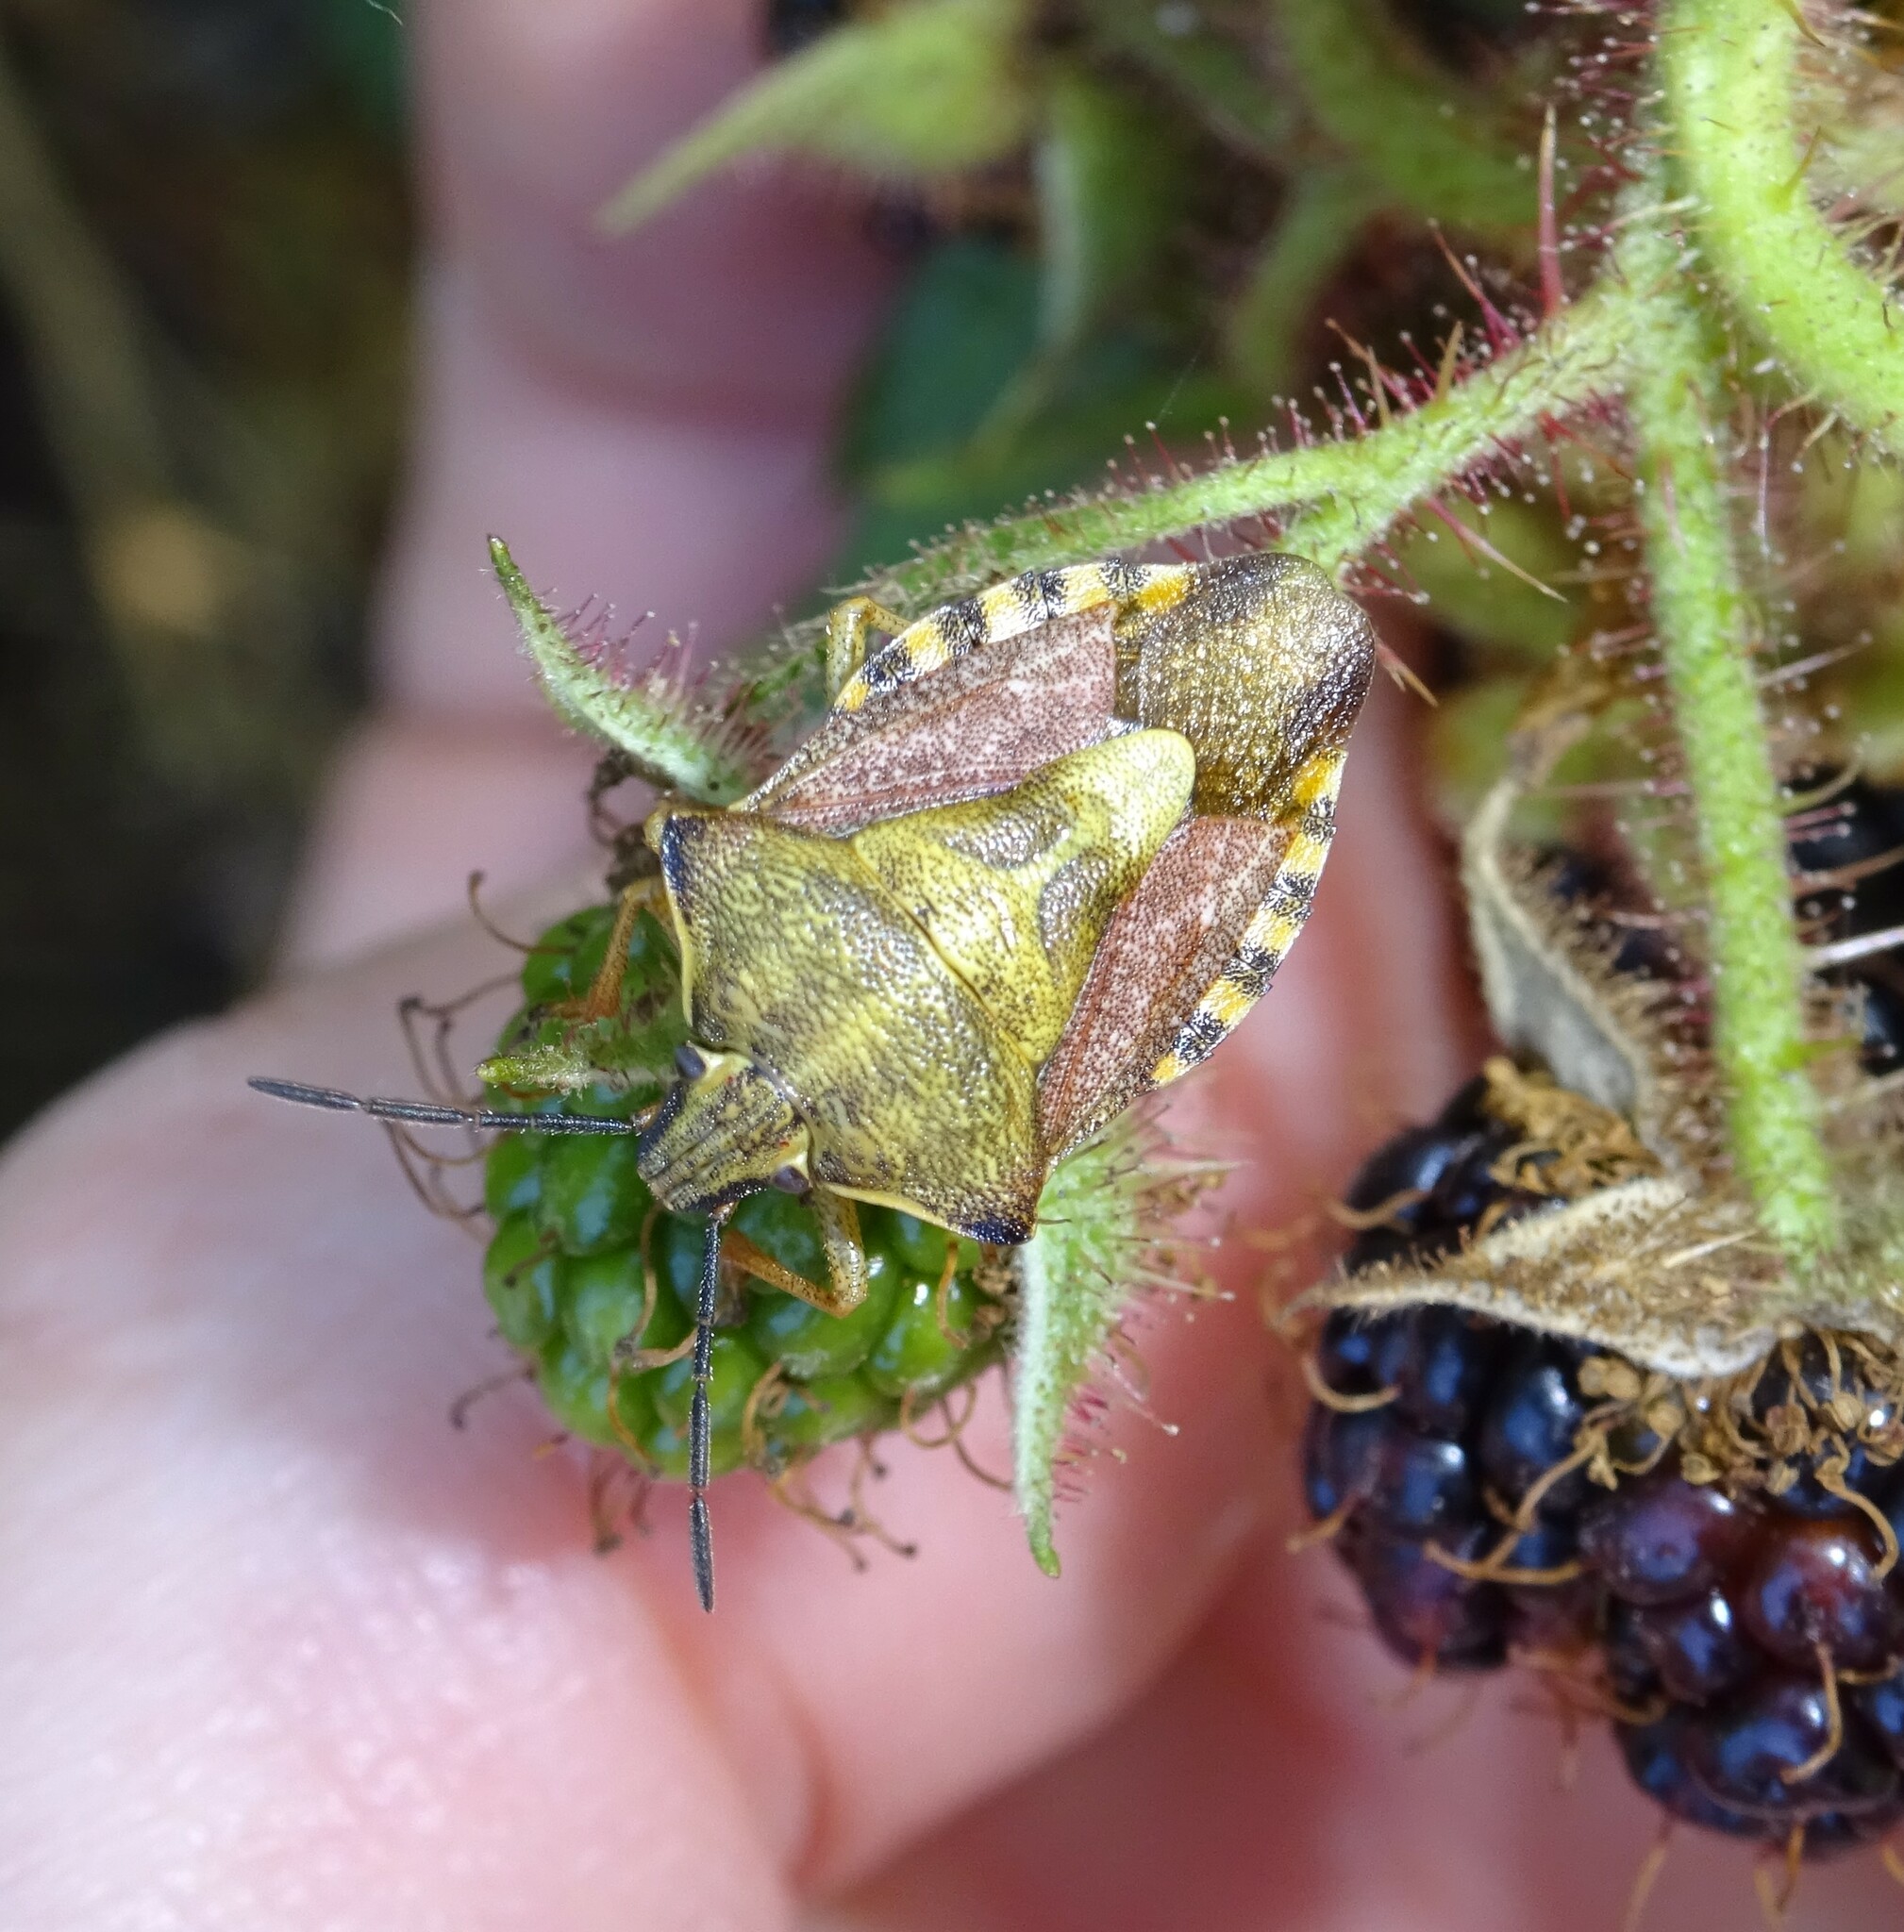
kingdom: Animalia
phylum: Arthropoda
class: Insecta
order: Hemiptera
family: Pentatomidae
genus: Carpocoris
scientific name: Carpocoris purpureipennis
